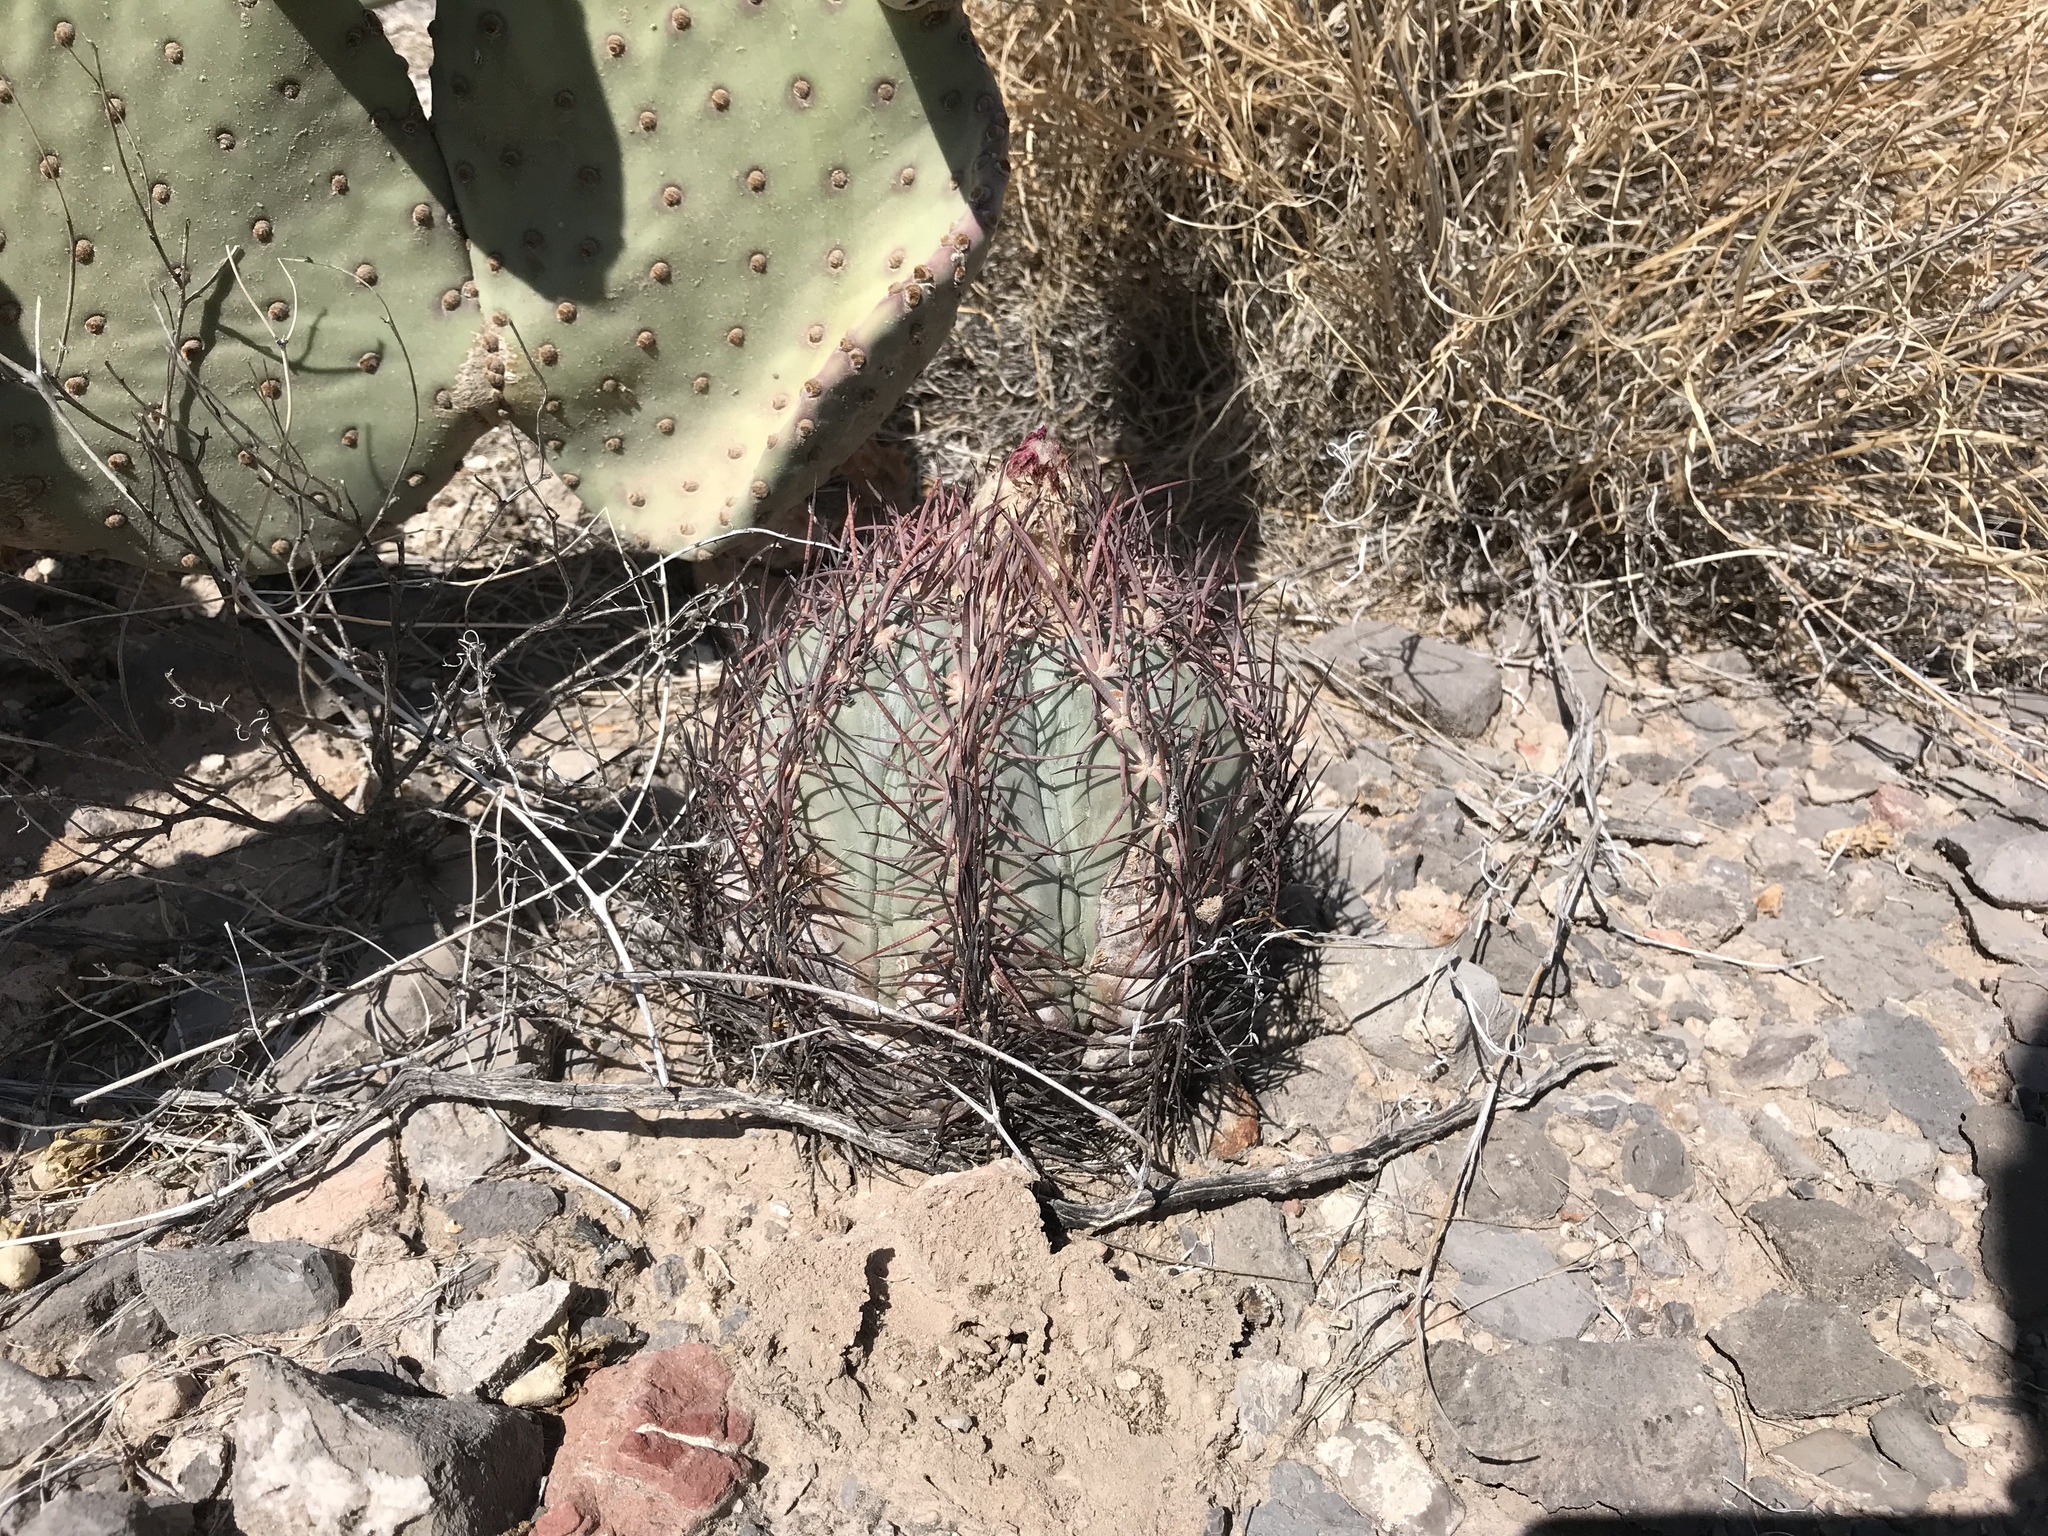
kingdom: Plantae
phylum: Tracheophyta
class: Magnoliopsida
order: Caryophyllales
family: Cactaceae
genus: Echinocactus
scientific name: Echinocactus horizonthalonius
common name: Devilshead
